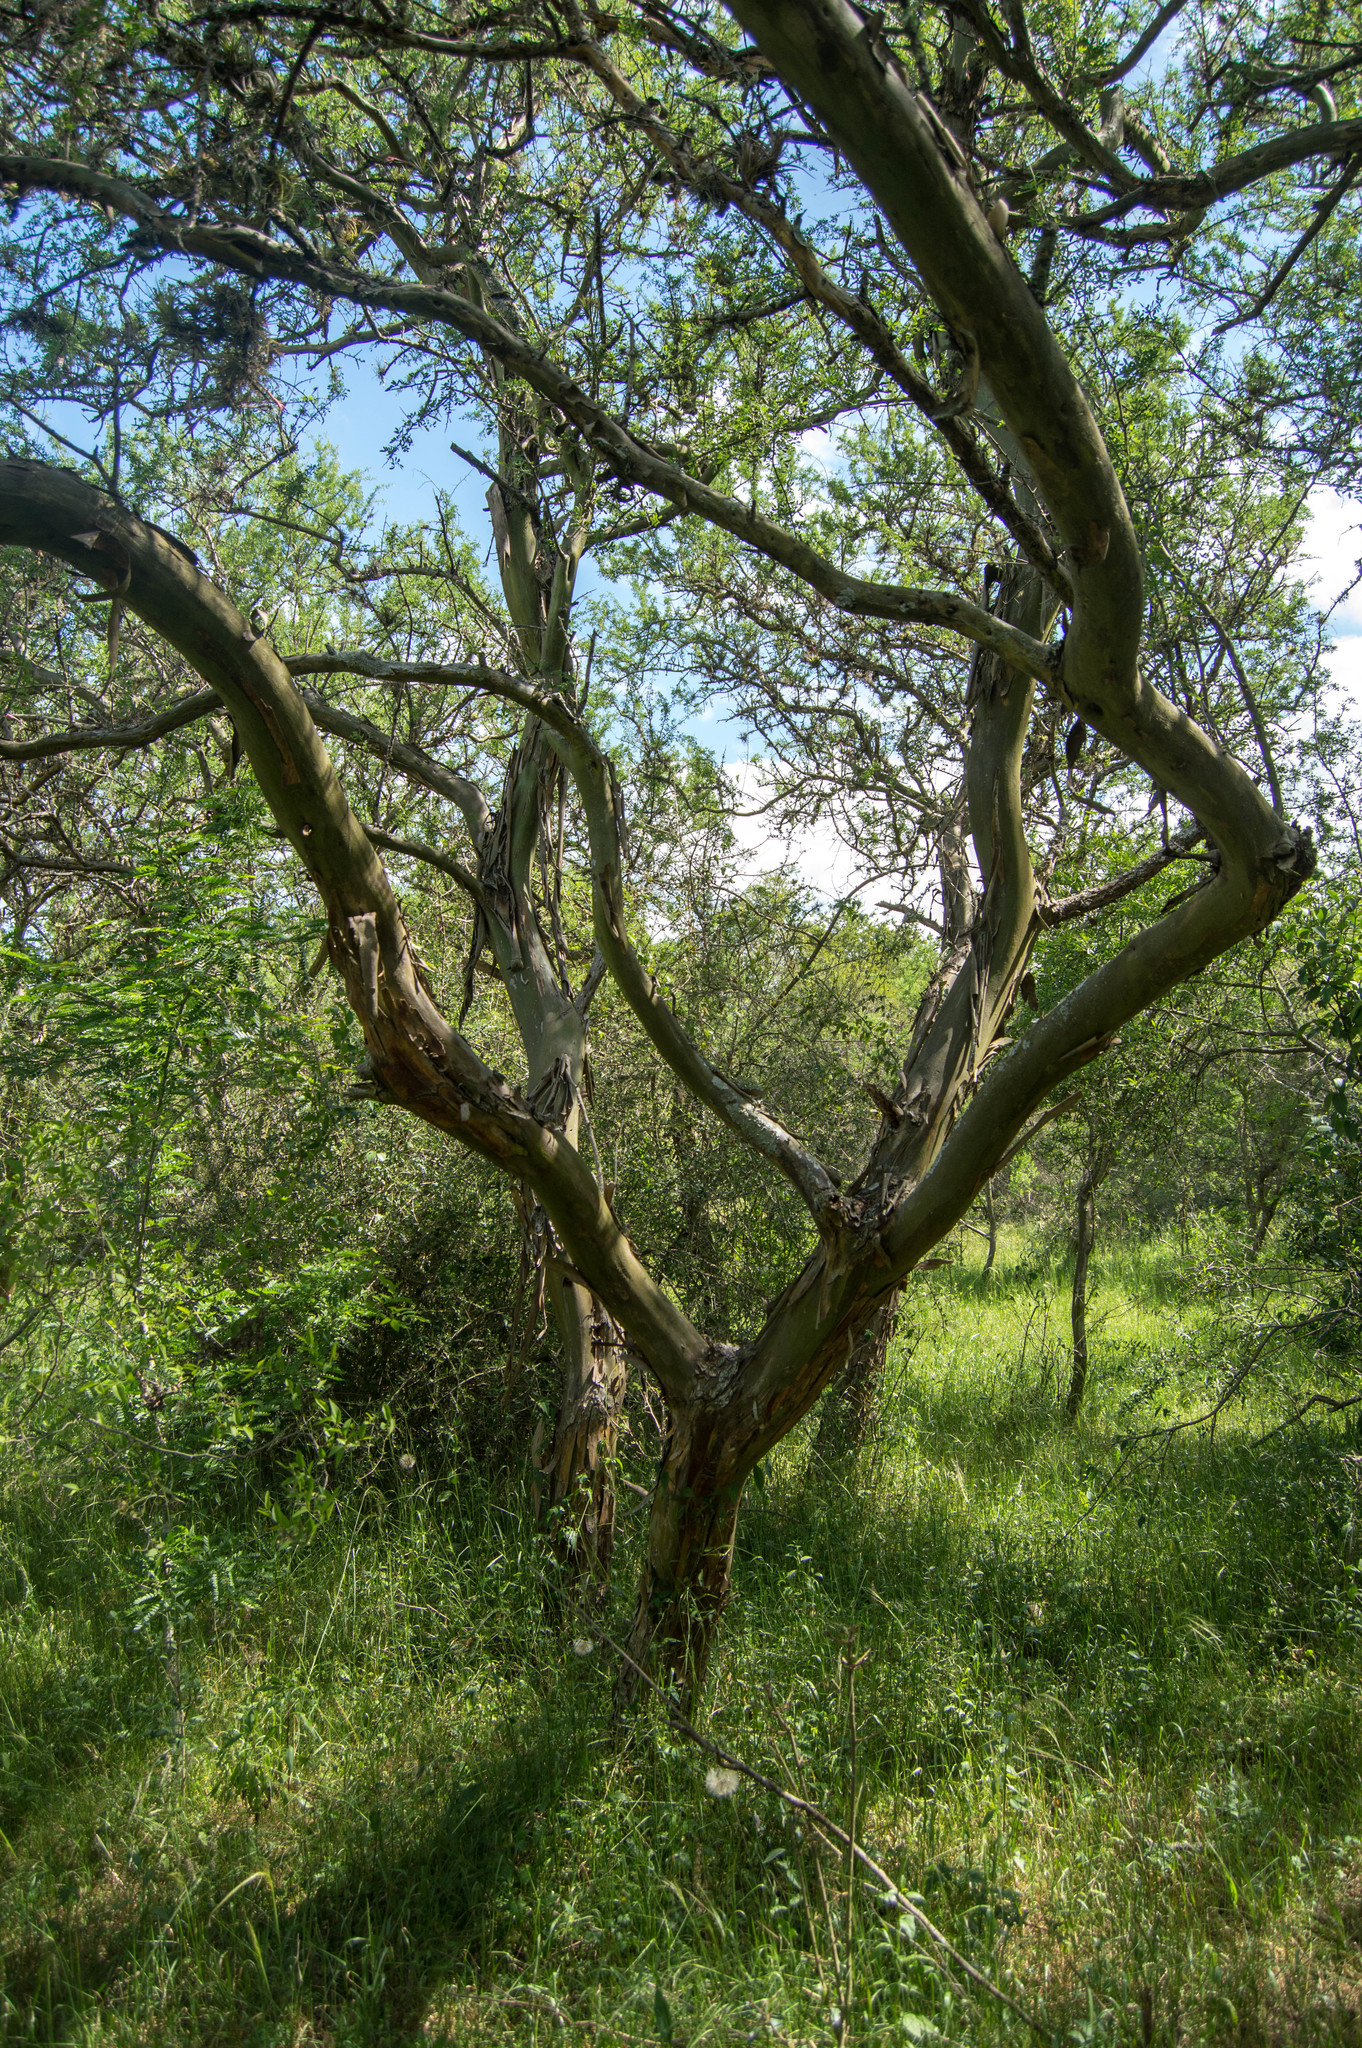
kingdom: Plantae
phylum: Tracheophyta
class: Magnoliopsida
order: Fabales
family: Fabaceae
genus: Geoffroea
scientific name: Geoffroea decorticans
